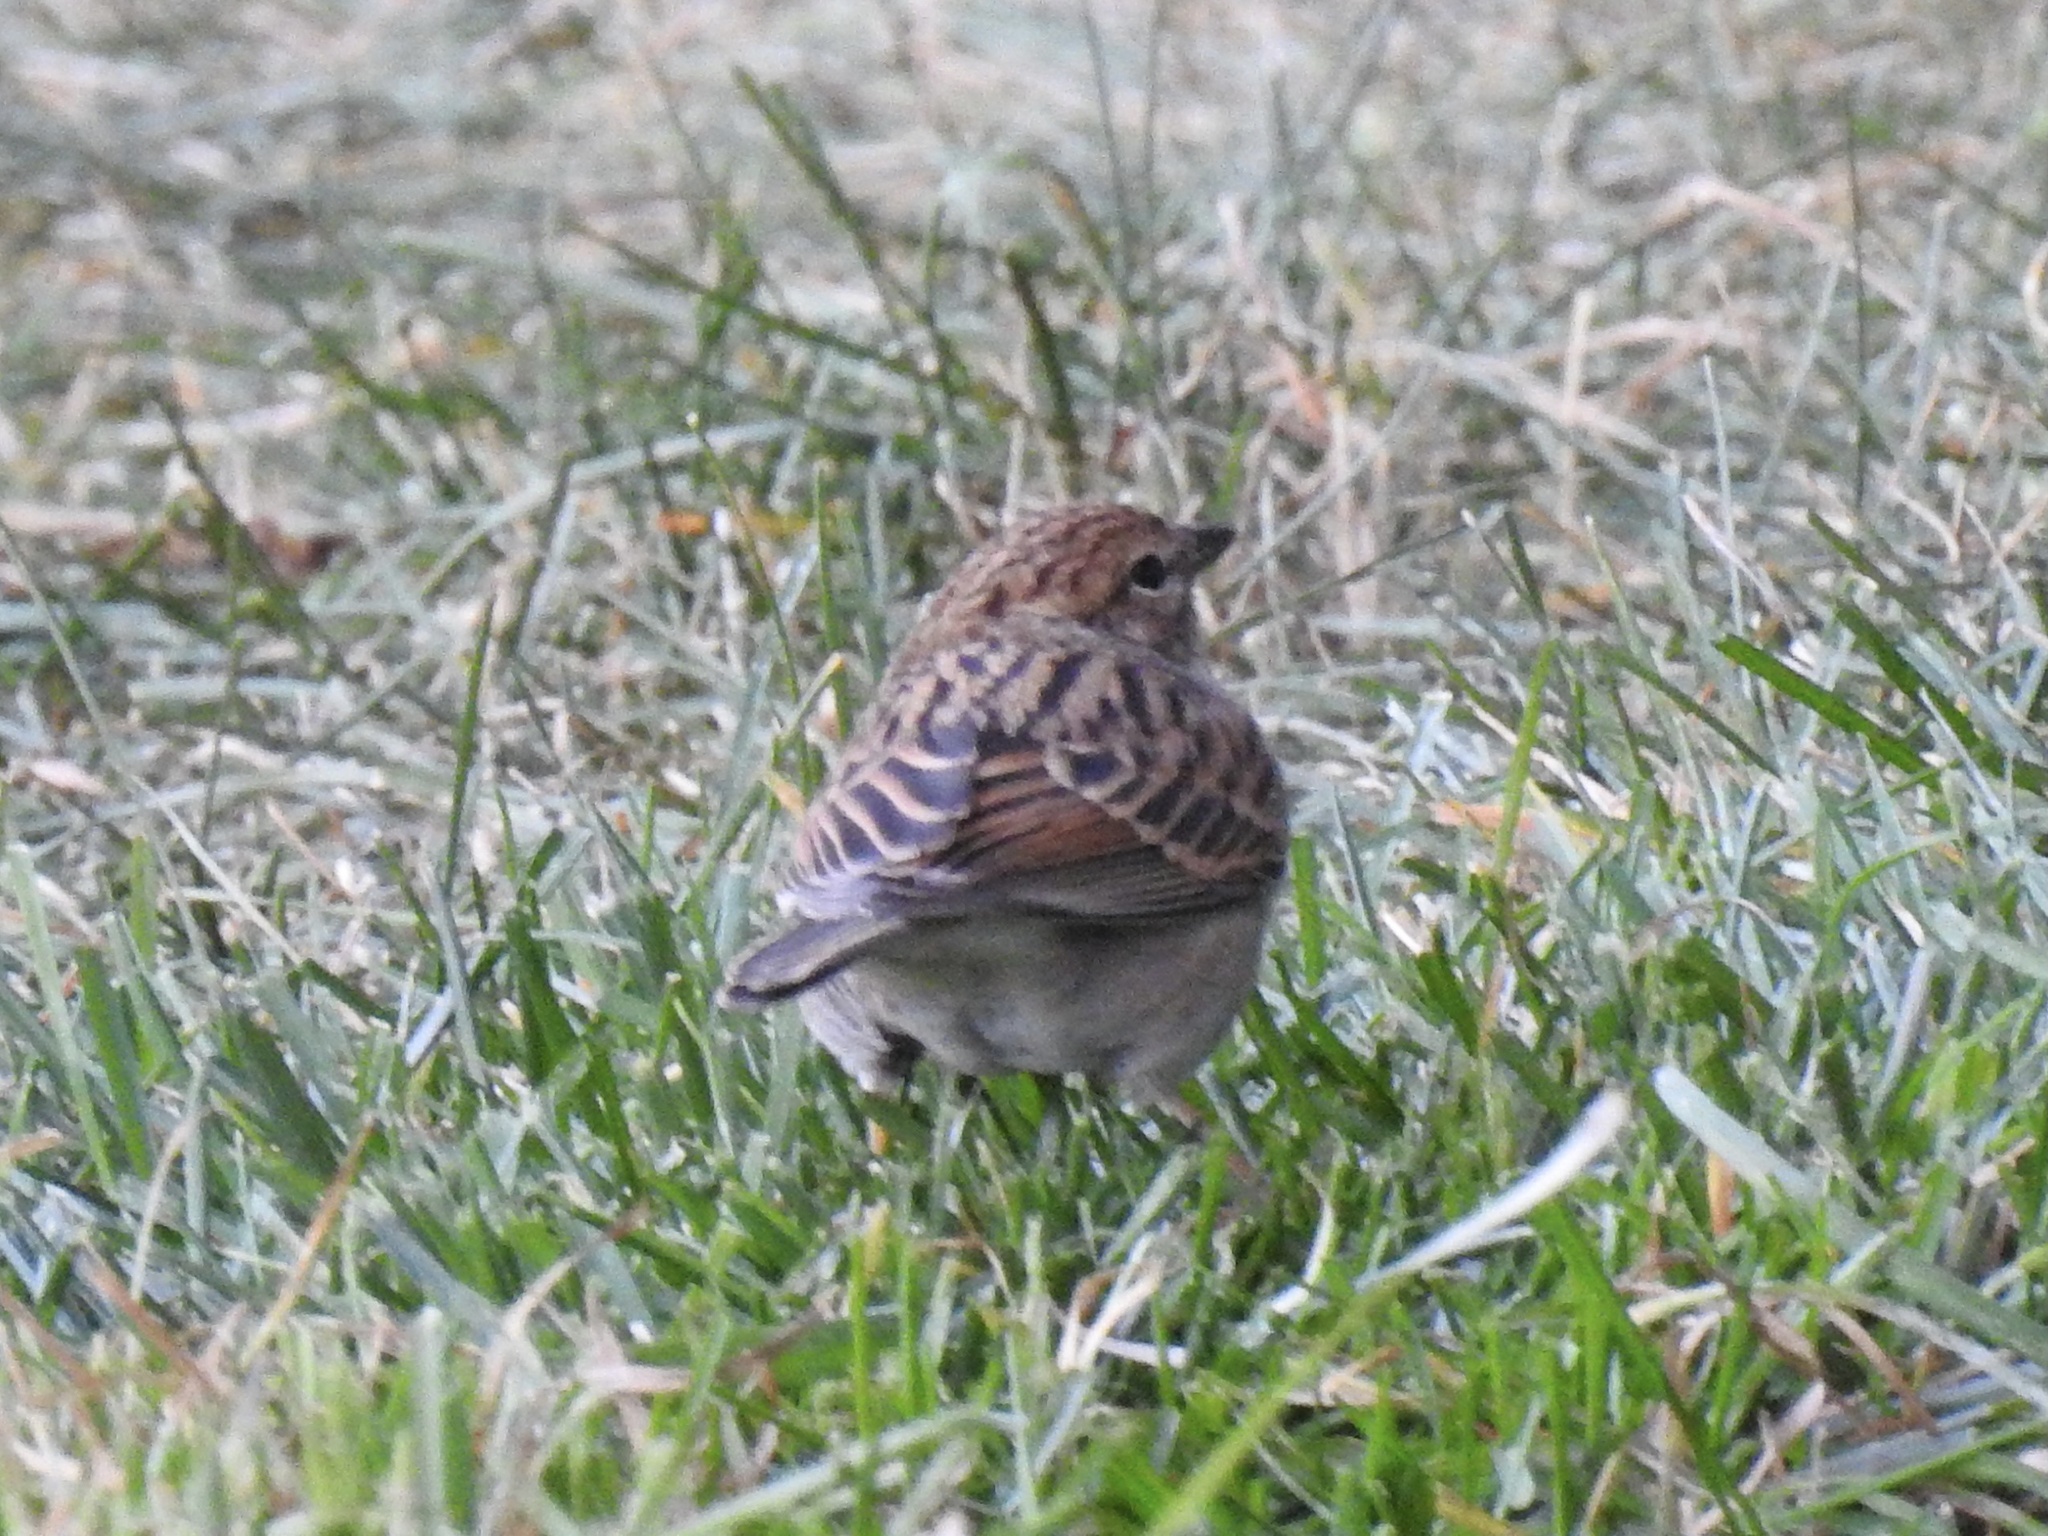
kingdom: Animalia
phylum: Chordata
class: Aves
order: Passeriformes
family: Passerellidae
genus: Spizella
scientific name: Spizella passerina
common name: Chipping sparrow
